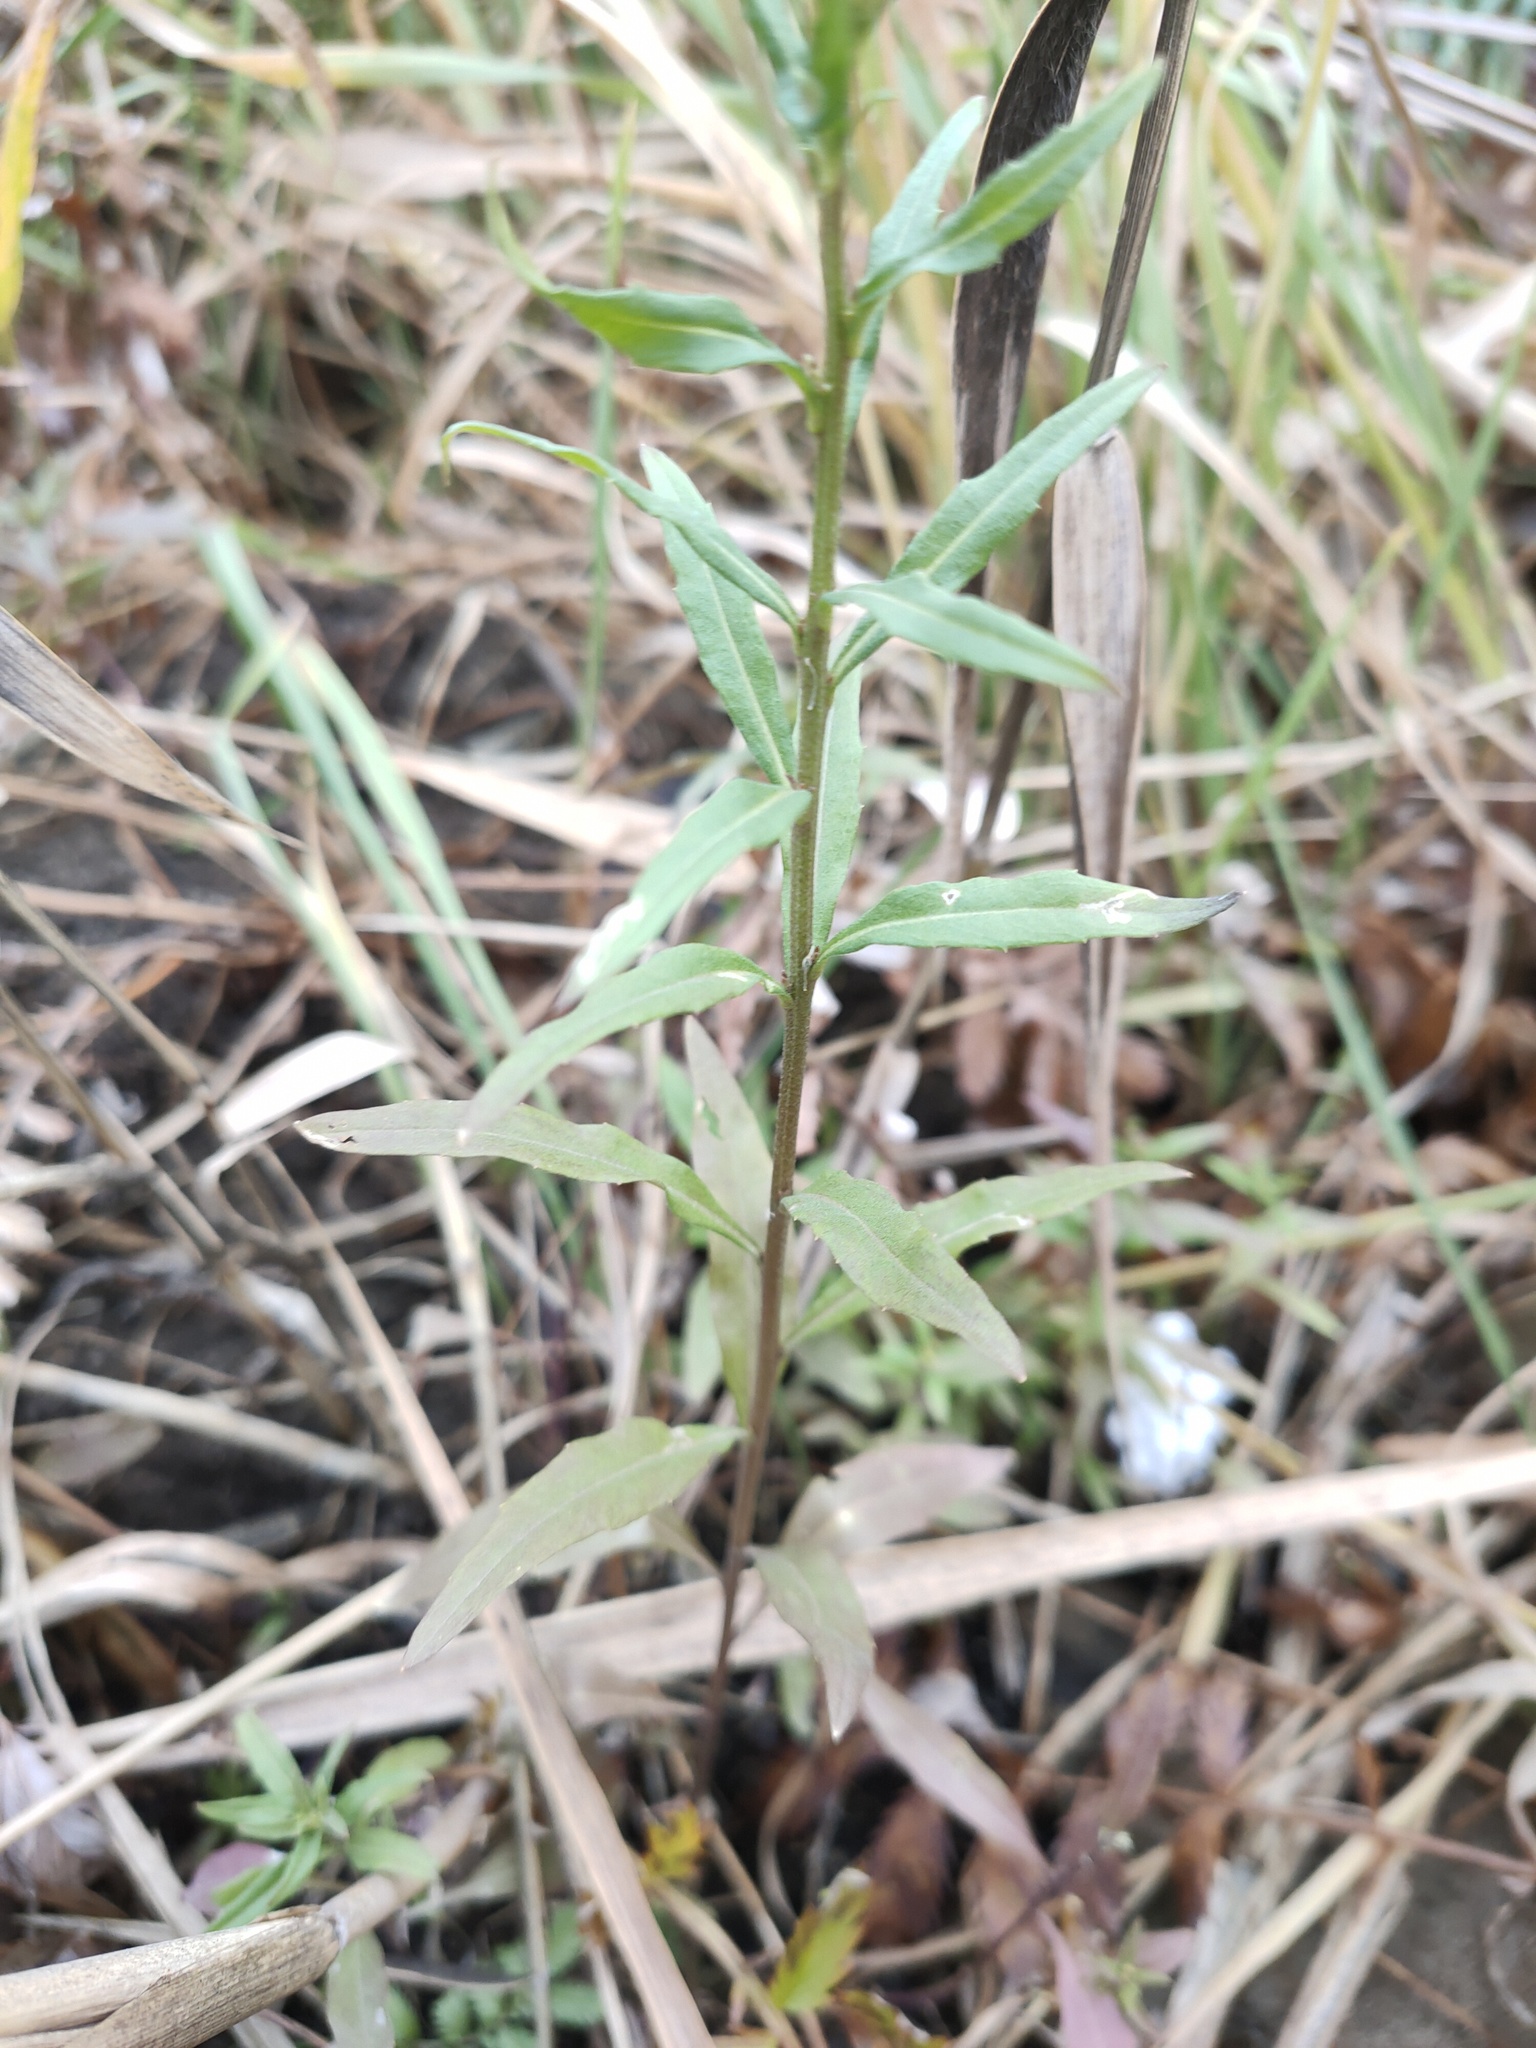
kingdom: Plantae
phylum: Tracheophyta
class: Magnoliopsida
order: Brassicales
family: Brassicaceae
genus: Erysimum
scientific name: Erysimum cheiranthoides
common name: Treacle mustard
